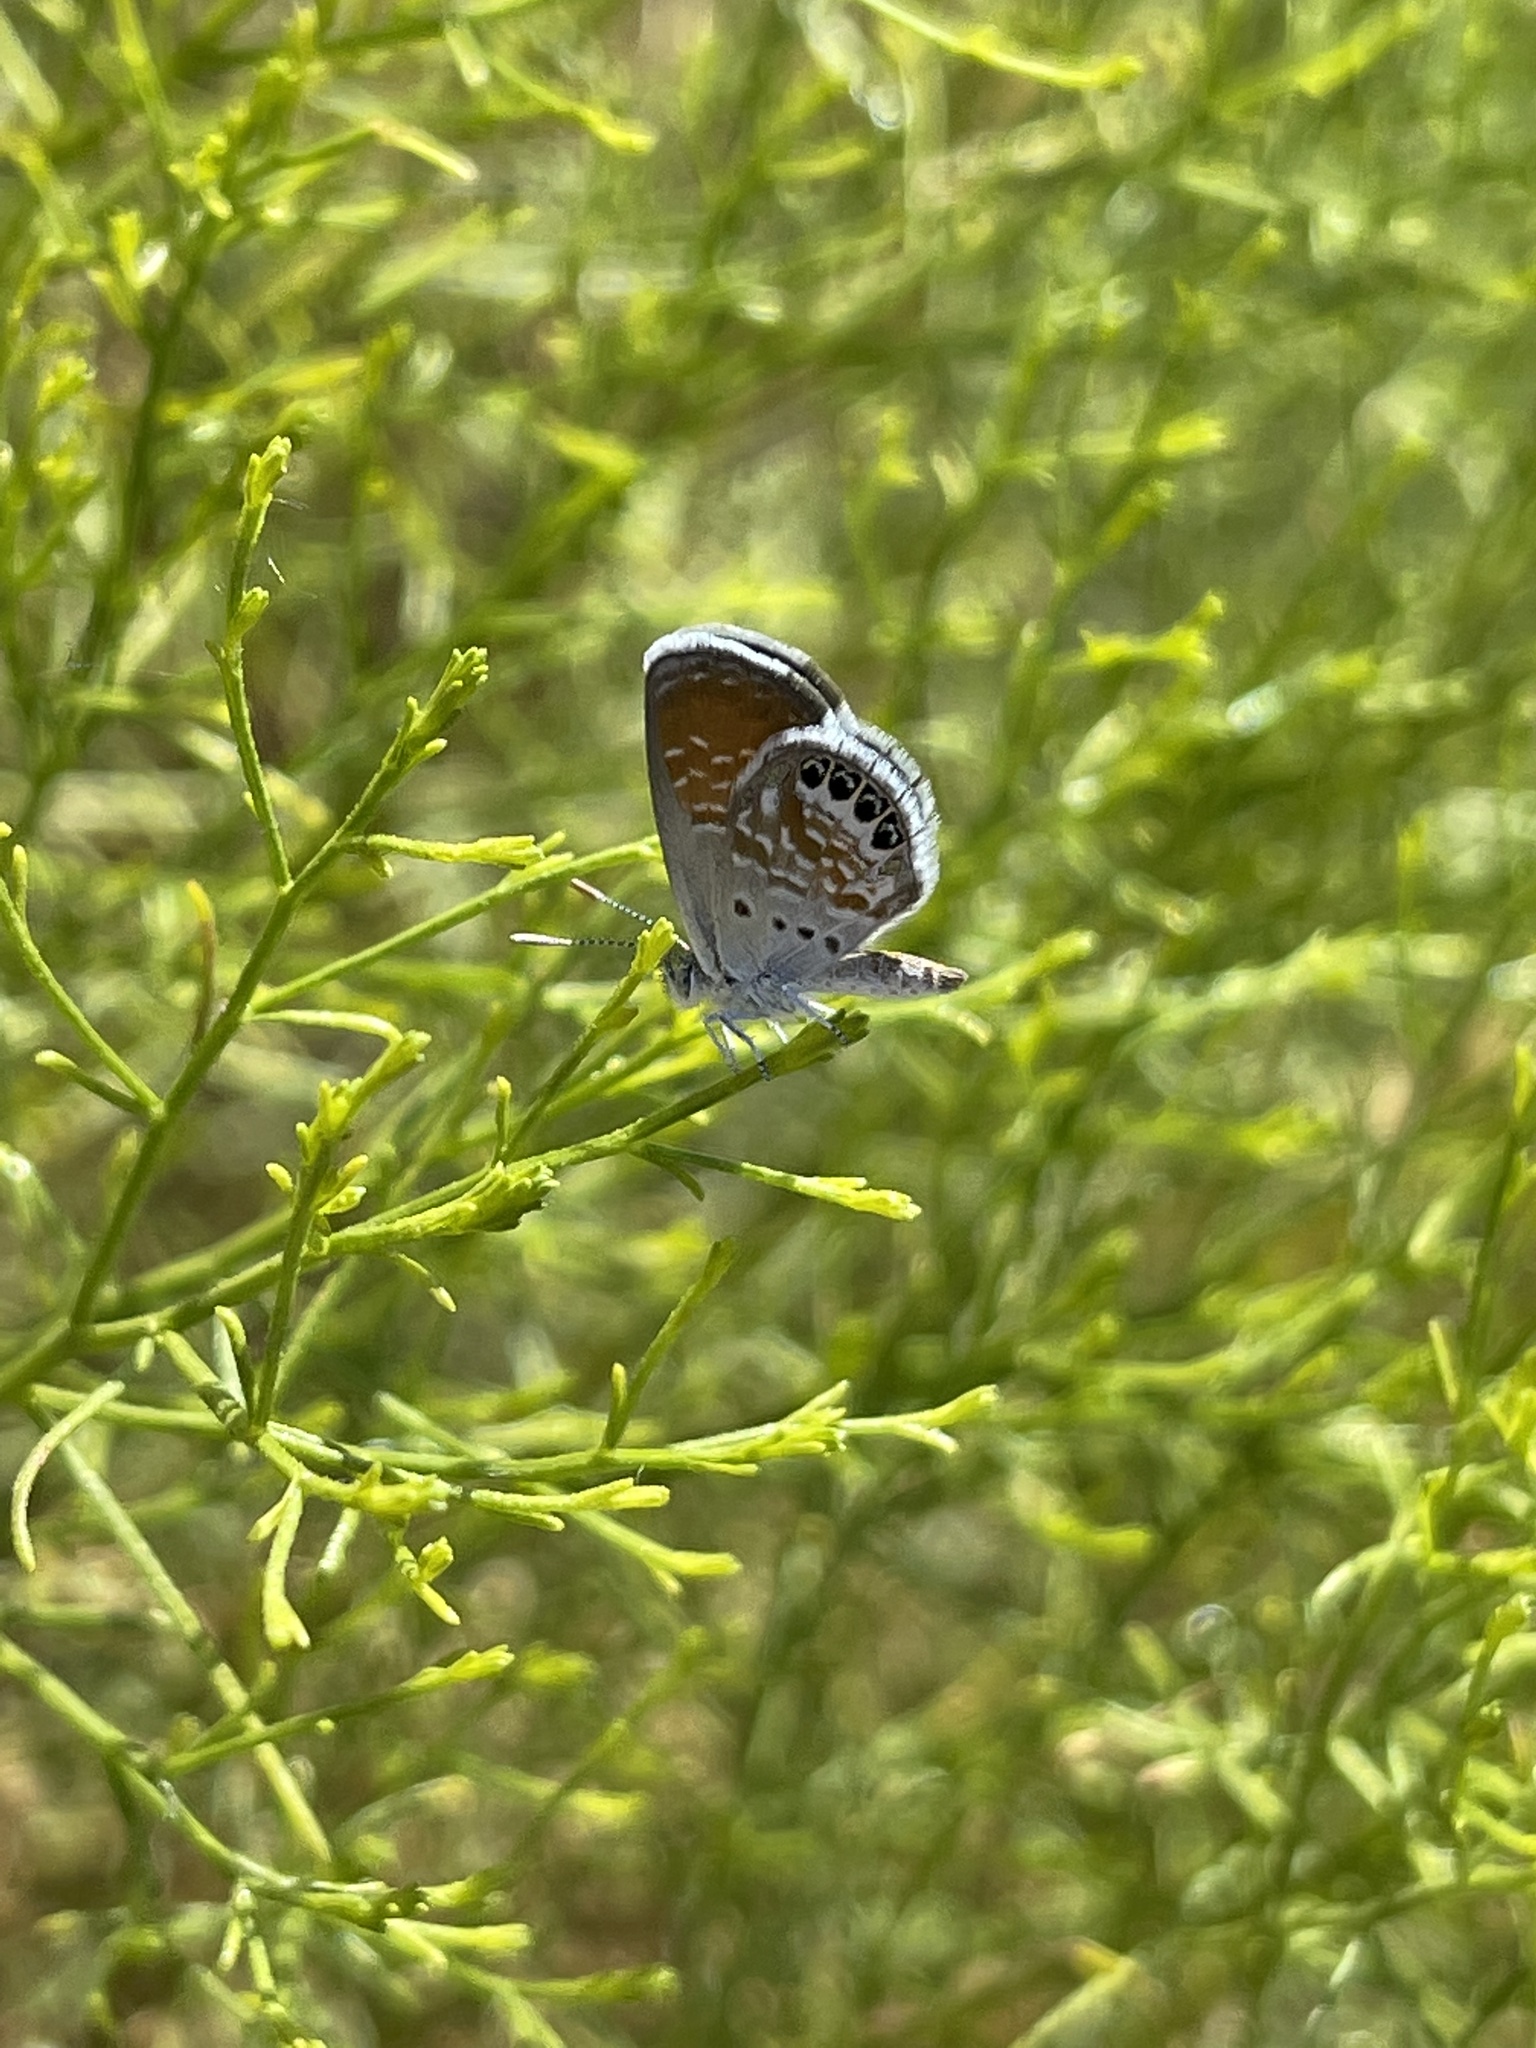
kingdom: Animalia
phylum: Arthropoda
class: Insecta
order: Lepidoptera
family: Lycaenidae
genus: Brephidium
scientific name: Brephidium exilis
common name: Pygmy blue
